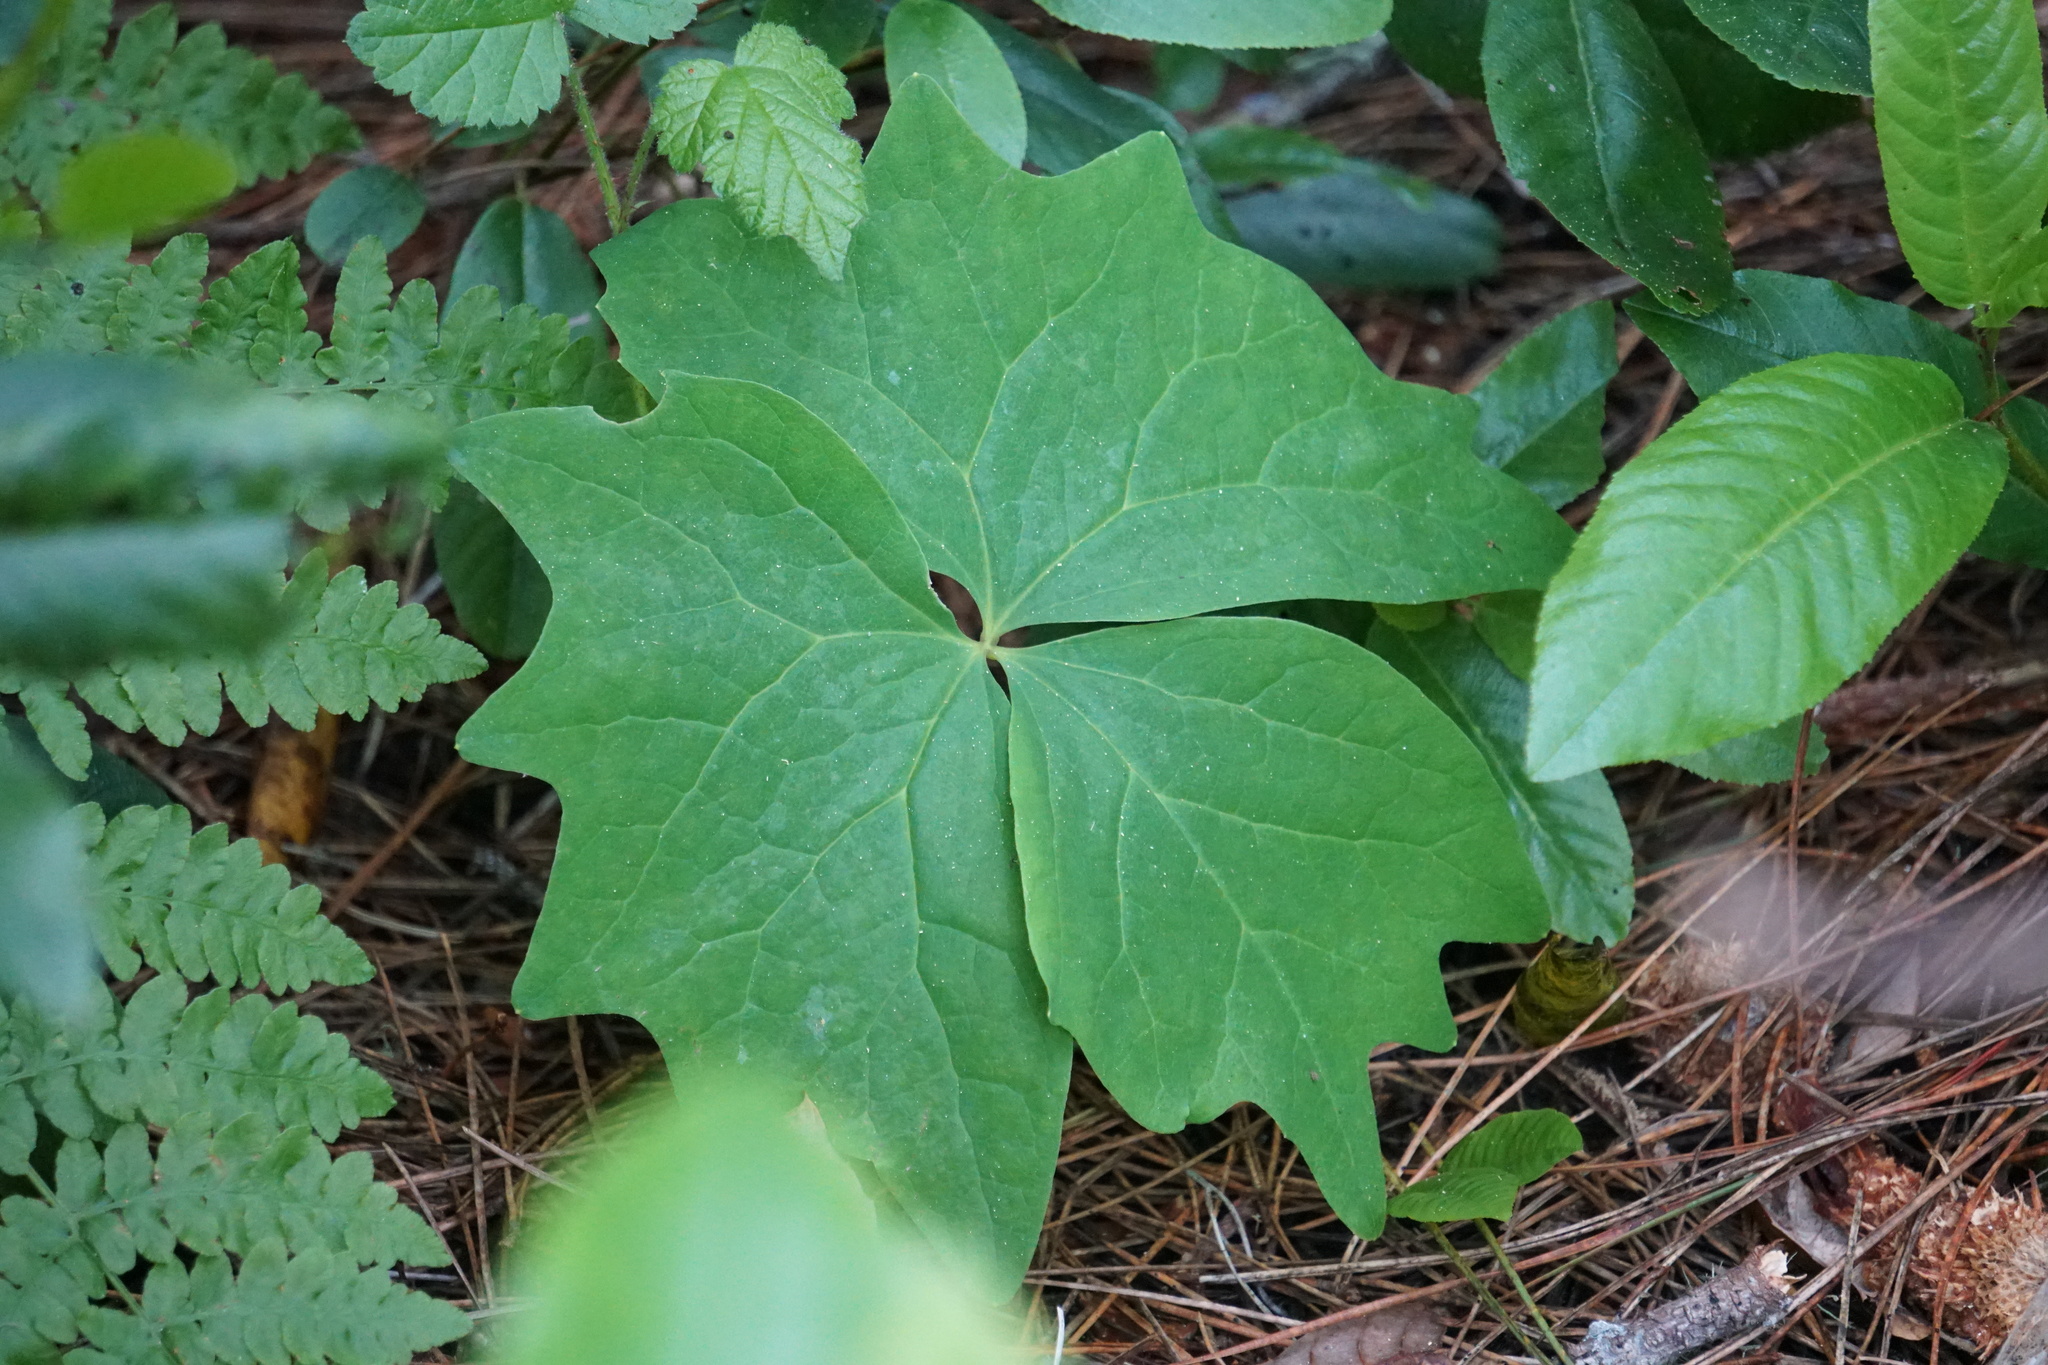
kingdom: Plantae
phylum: Tracheophyta
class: Magnoliopsida
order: Ranunculales
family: Berberidaceae
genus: Achlys
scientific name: Achlys triphylla
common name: Vanilla-leaf
